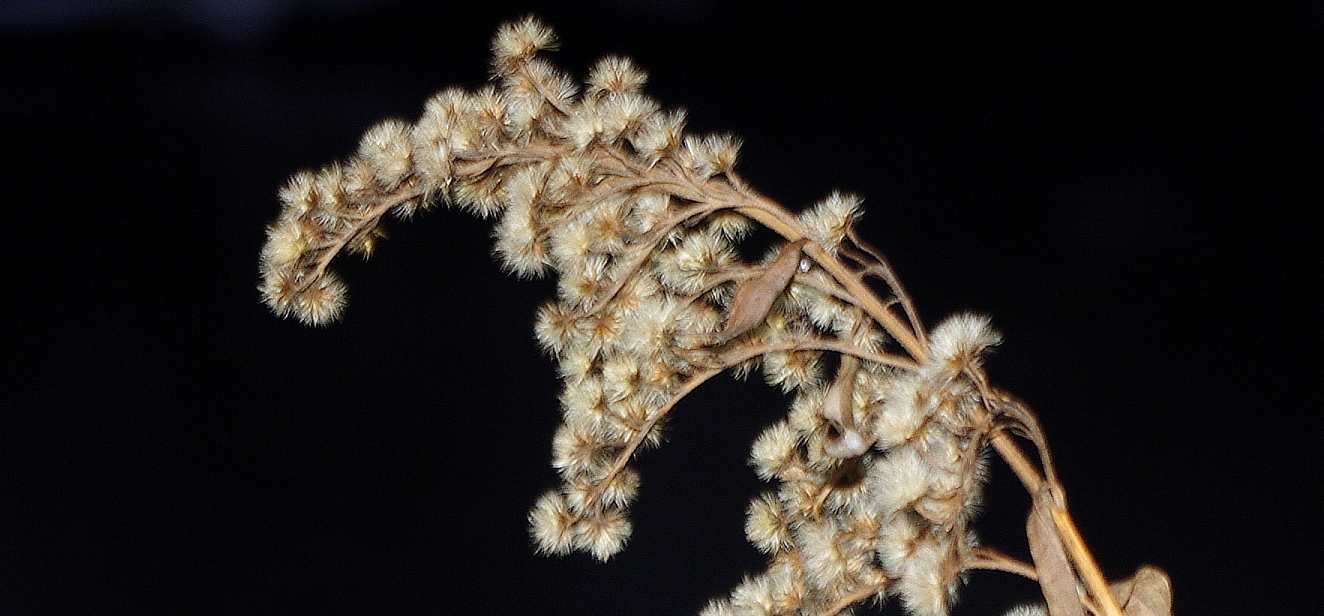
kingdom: Plantae
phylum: Tracheophyta
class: Magnoliopsida
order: Asterales
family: Asteraceae
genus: Solidago
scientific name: Solidago gigantea
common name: Giant goldenrod
